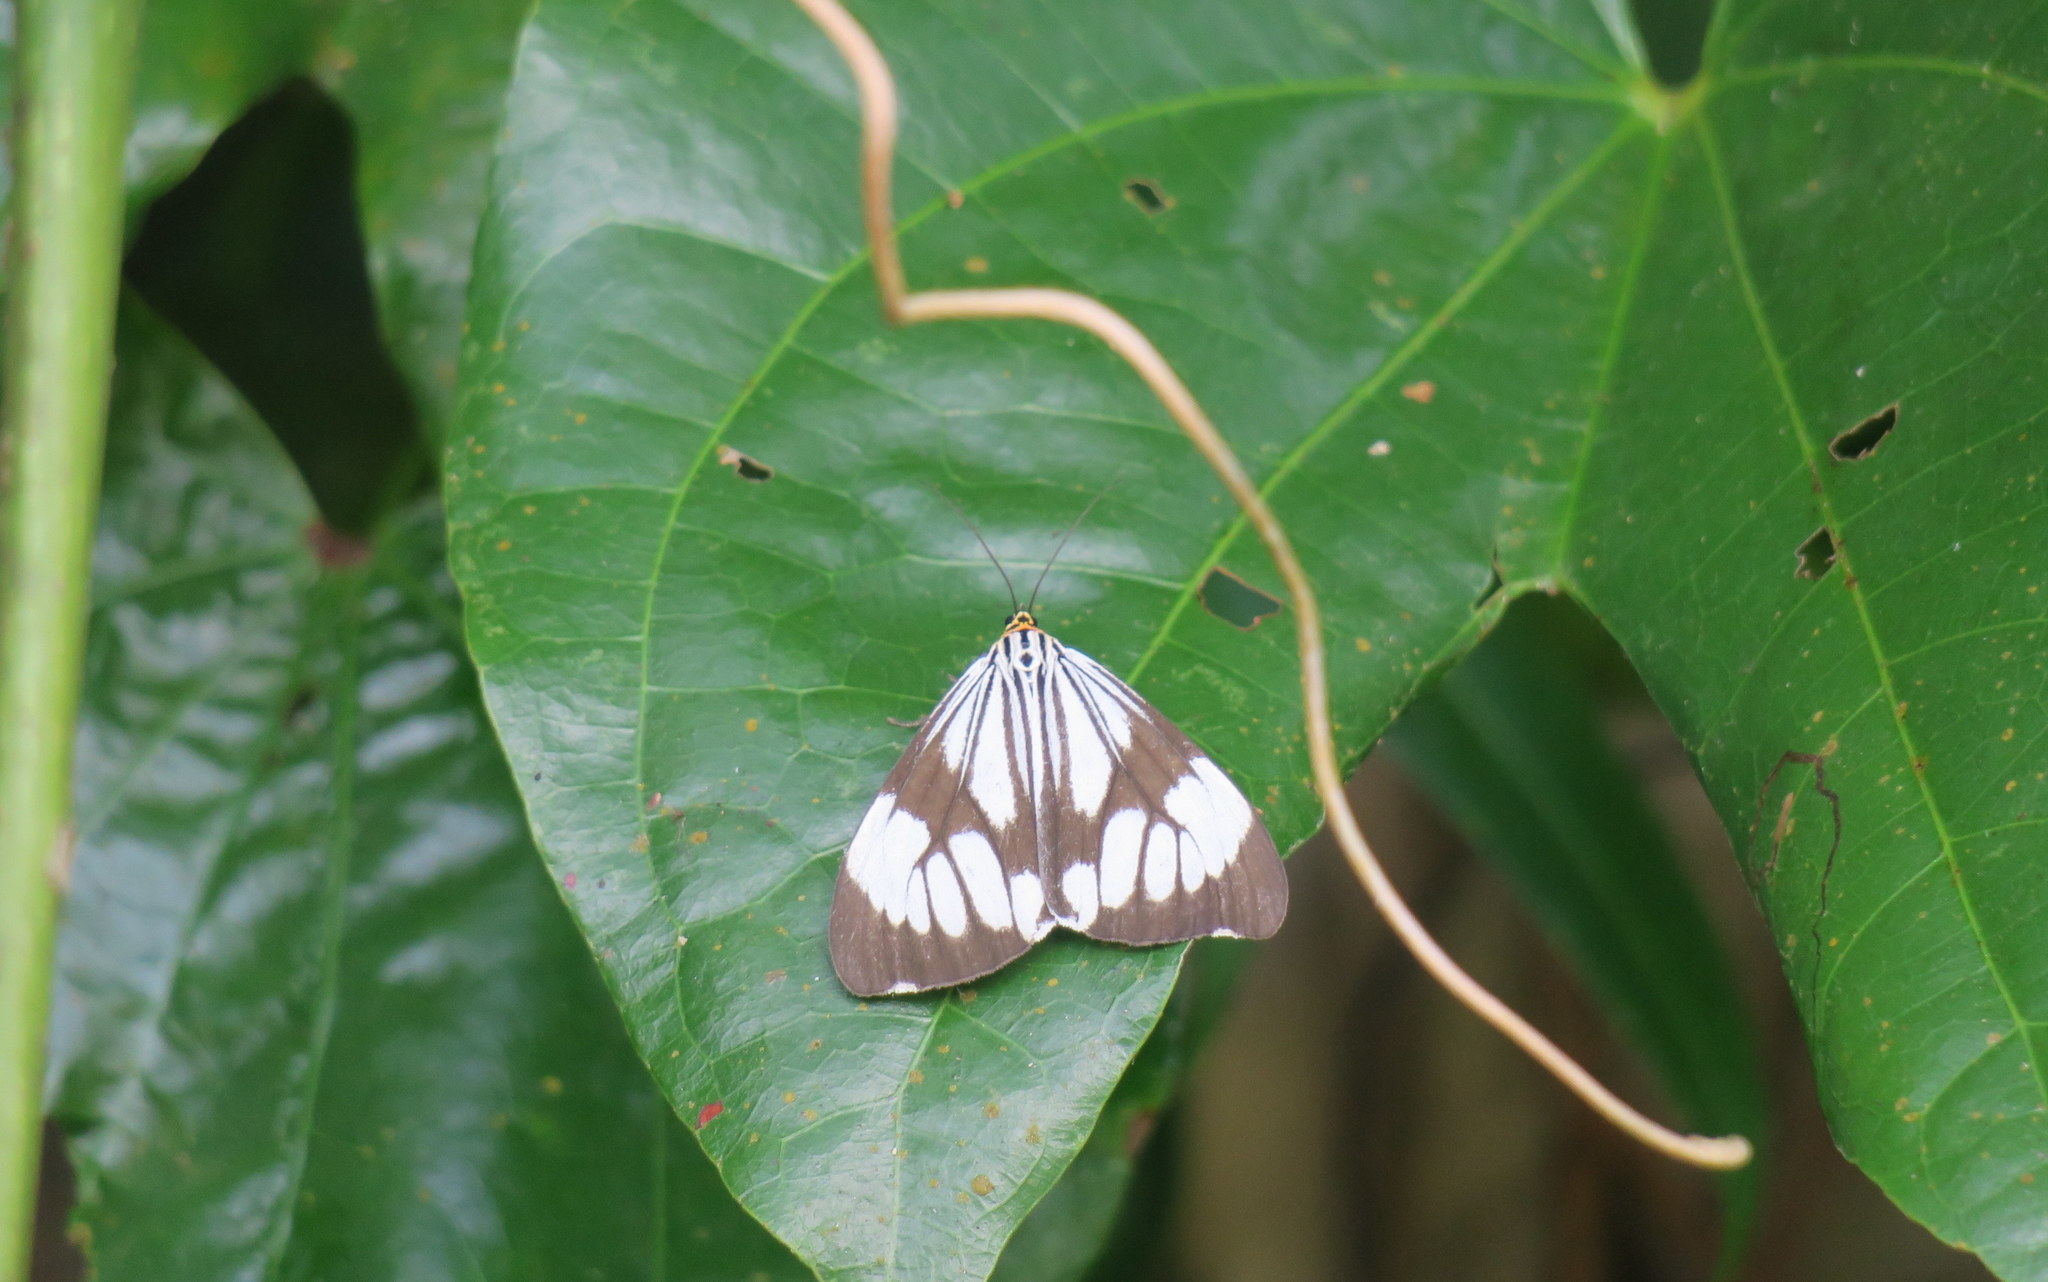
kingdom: Animalia
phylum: Arthropoda
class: Insecta
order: Lepidoptera
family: Erebidae
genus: Nyctemera
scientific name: Nyctemera adversata
